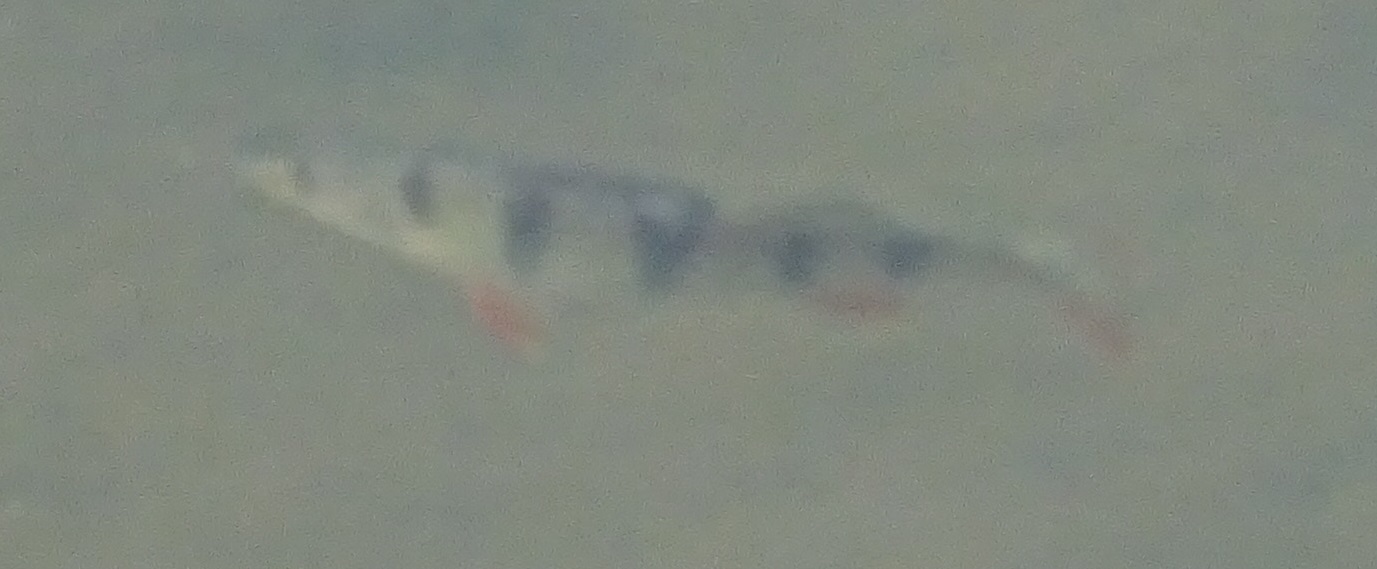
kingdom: Animalia
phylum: Chordata
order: Perciformes
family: Percidae
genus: Perca
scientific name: Perca fluviatilis
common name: Perch
